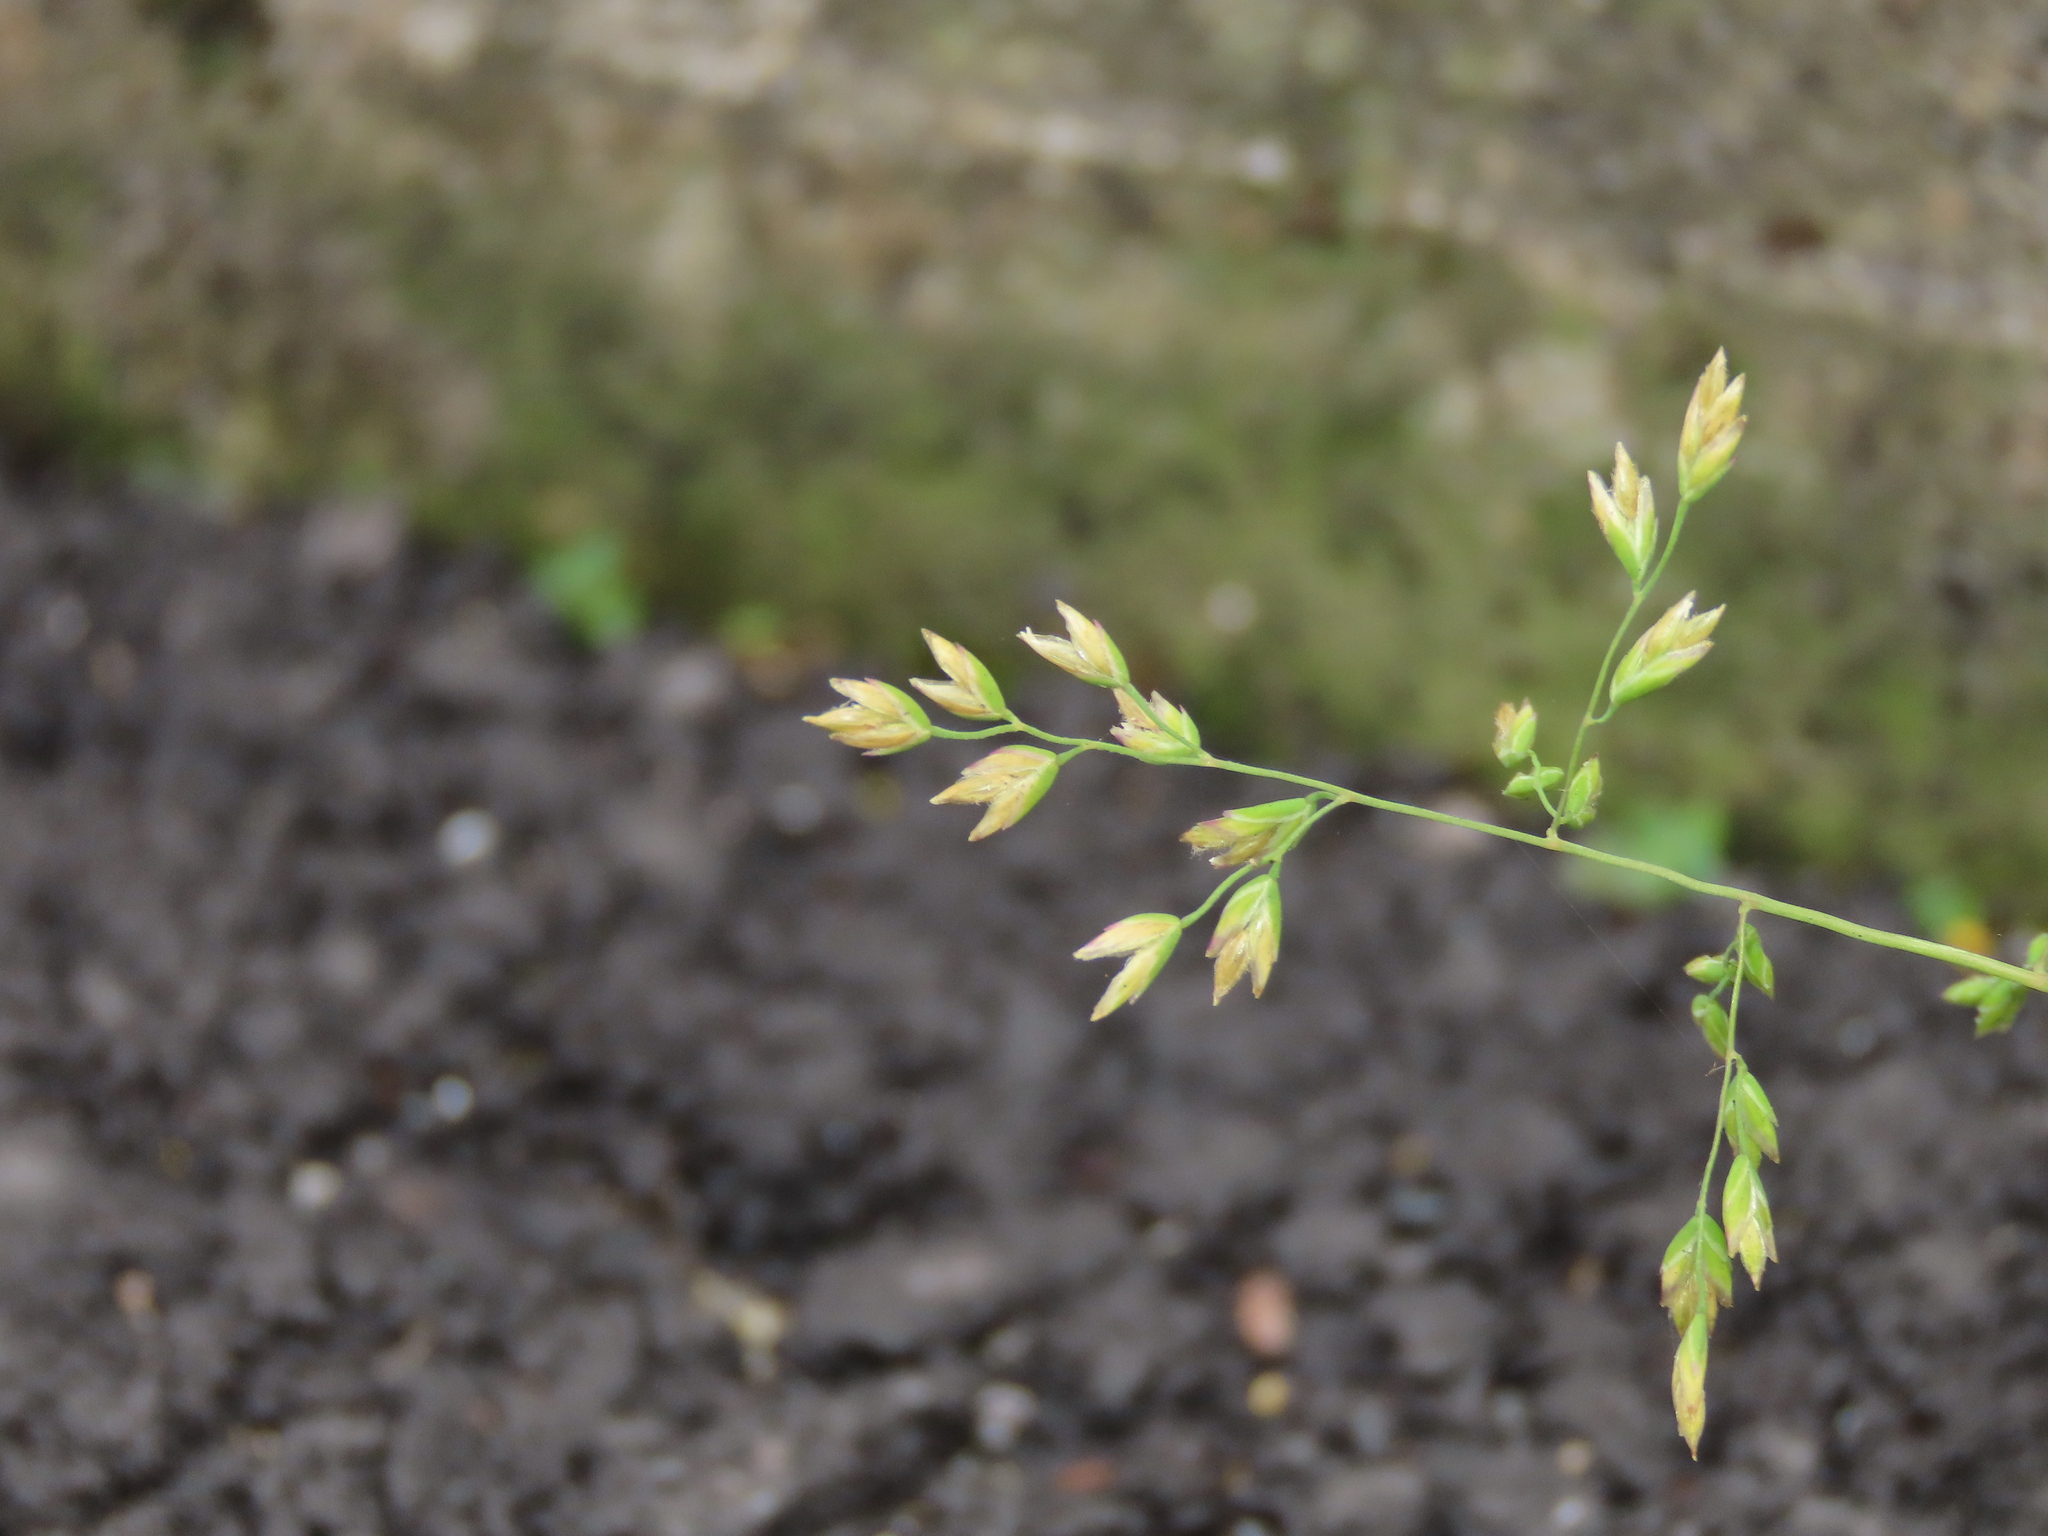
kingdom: Plantae
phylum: Tracheophyta
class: Liliopsida
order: Poales
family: Poaceae
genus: Poa
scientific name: Poa annua
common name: Annual bluegrass
